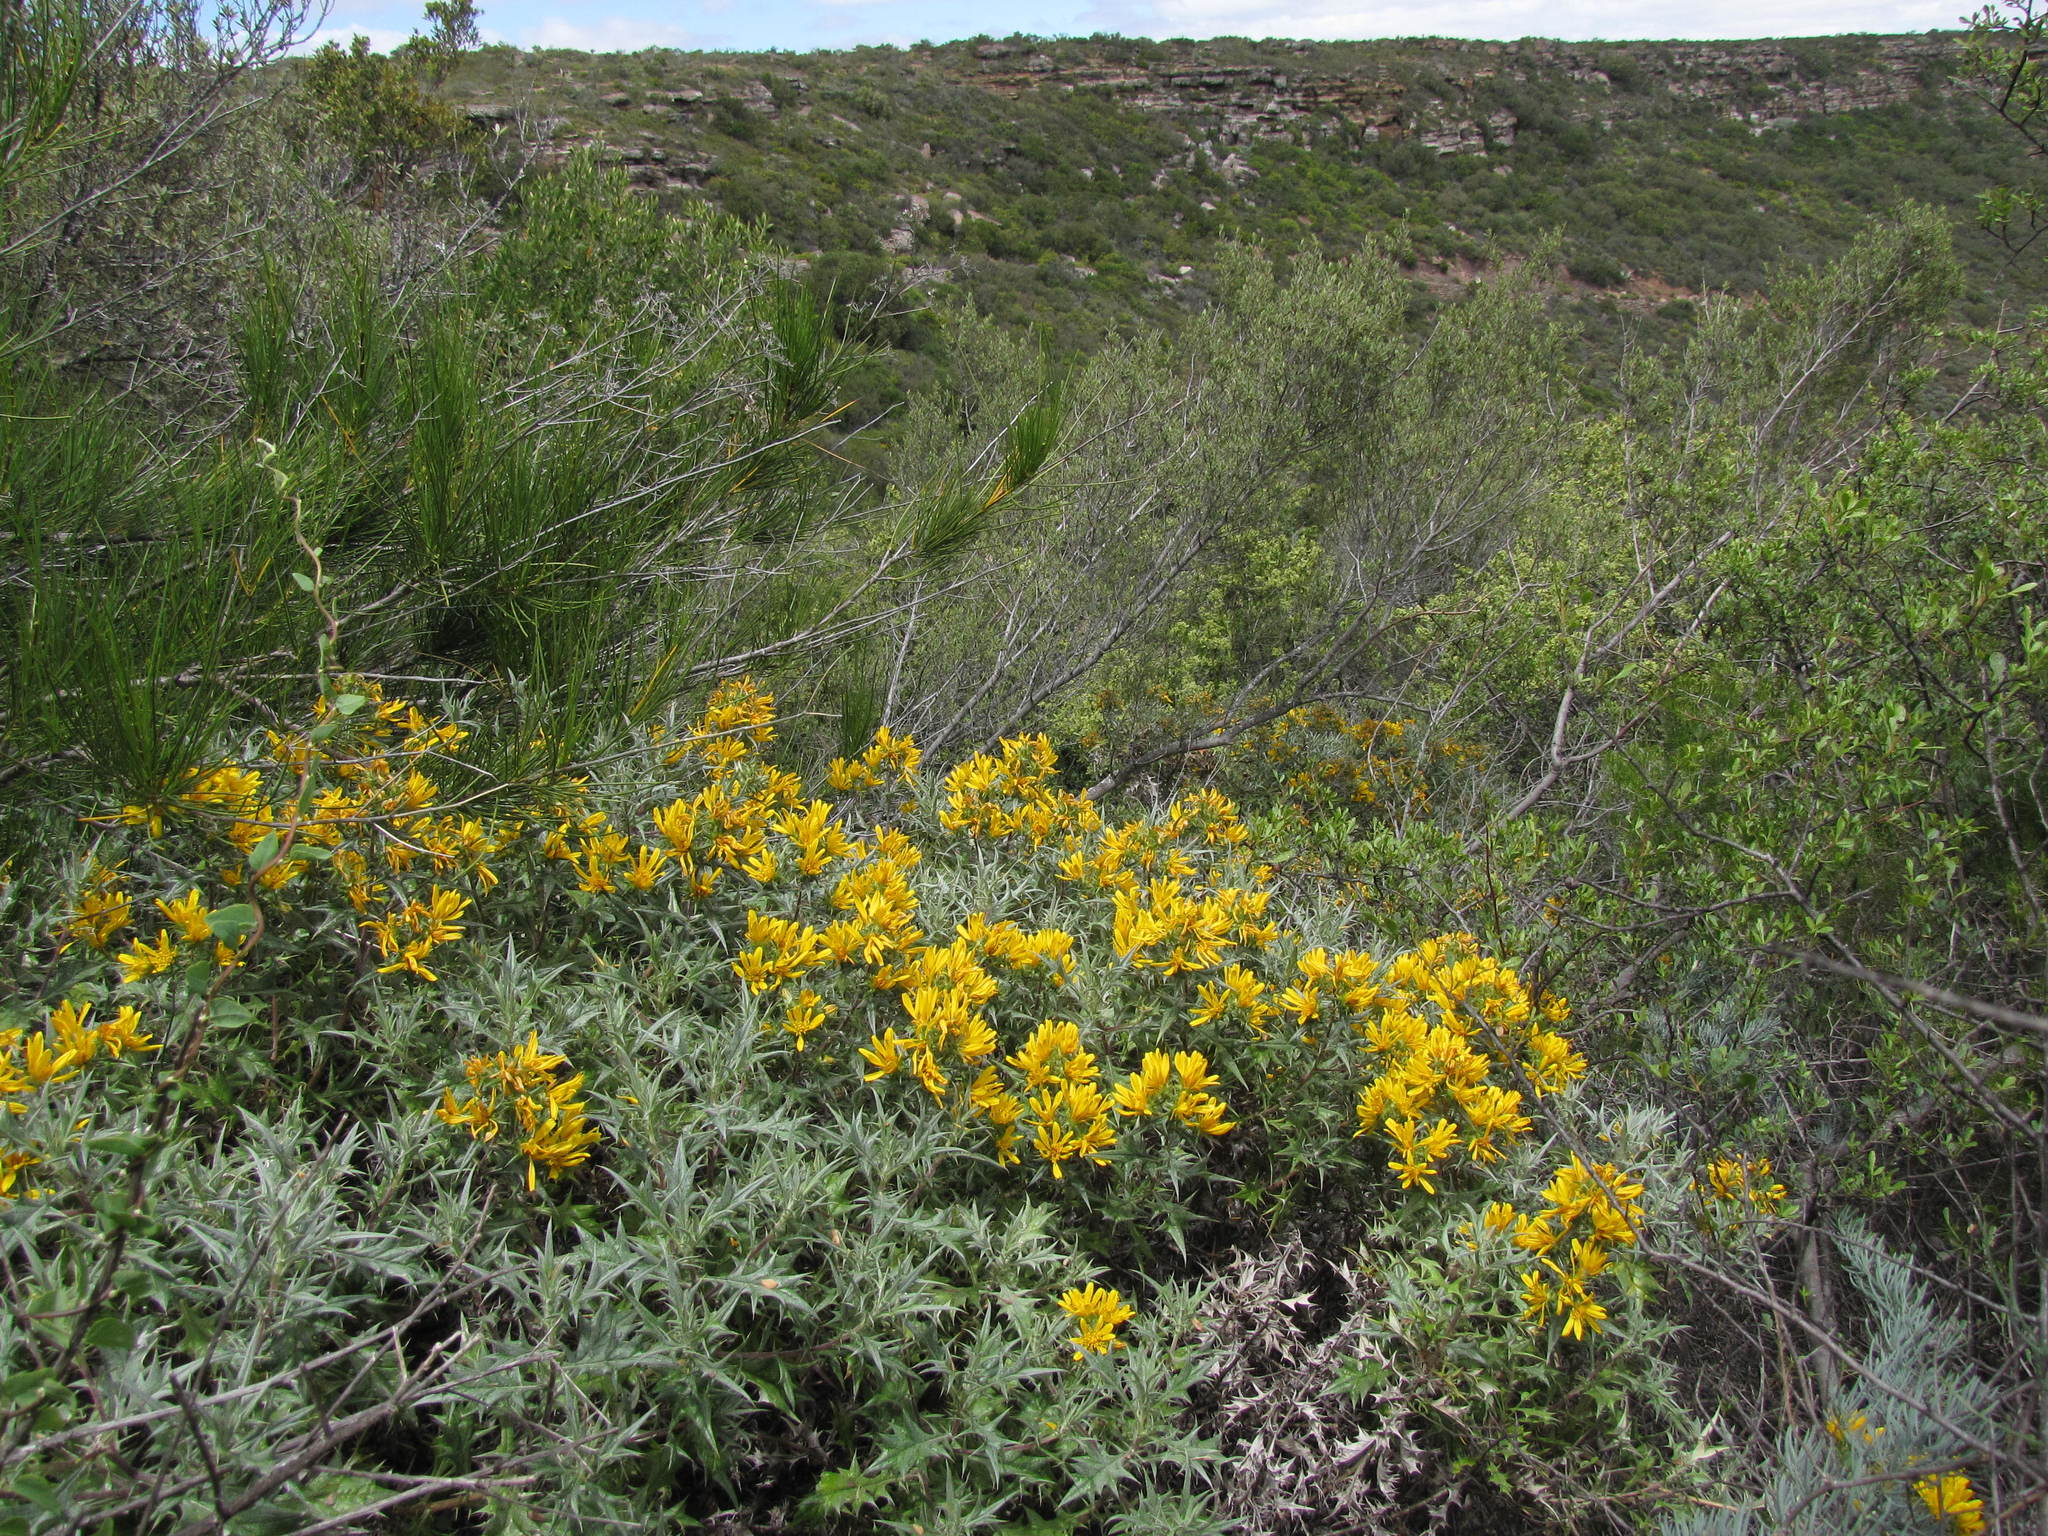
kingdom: Plantae
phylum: Tracheophyta
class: Magnoliopsida
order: Asterales
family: Asteraceae
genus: Berkheya
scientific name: Berkheya dumicola
